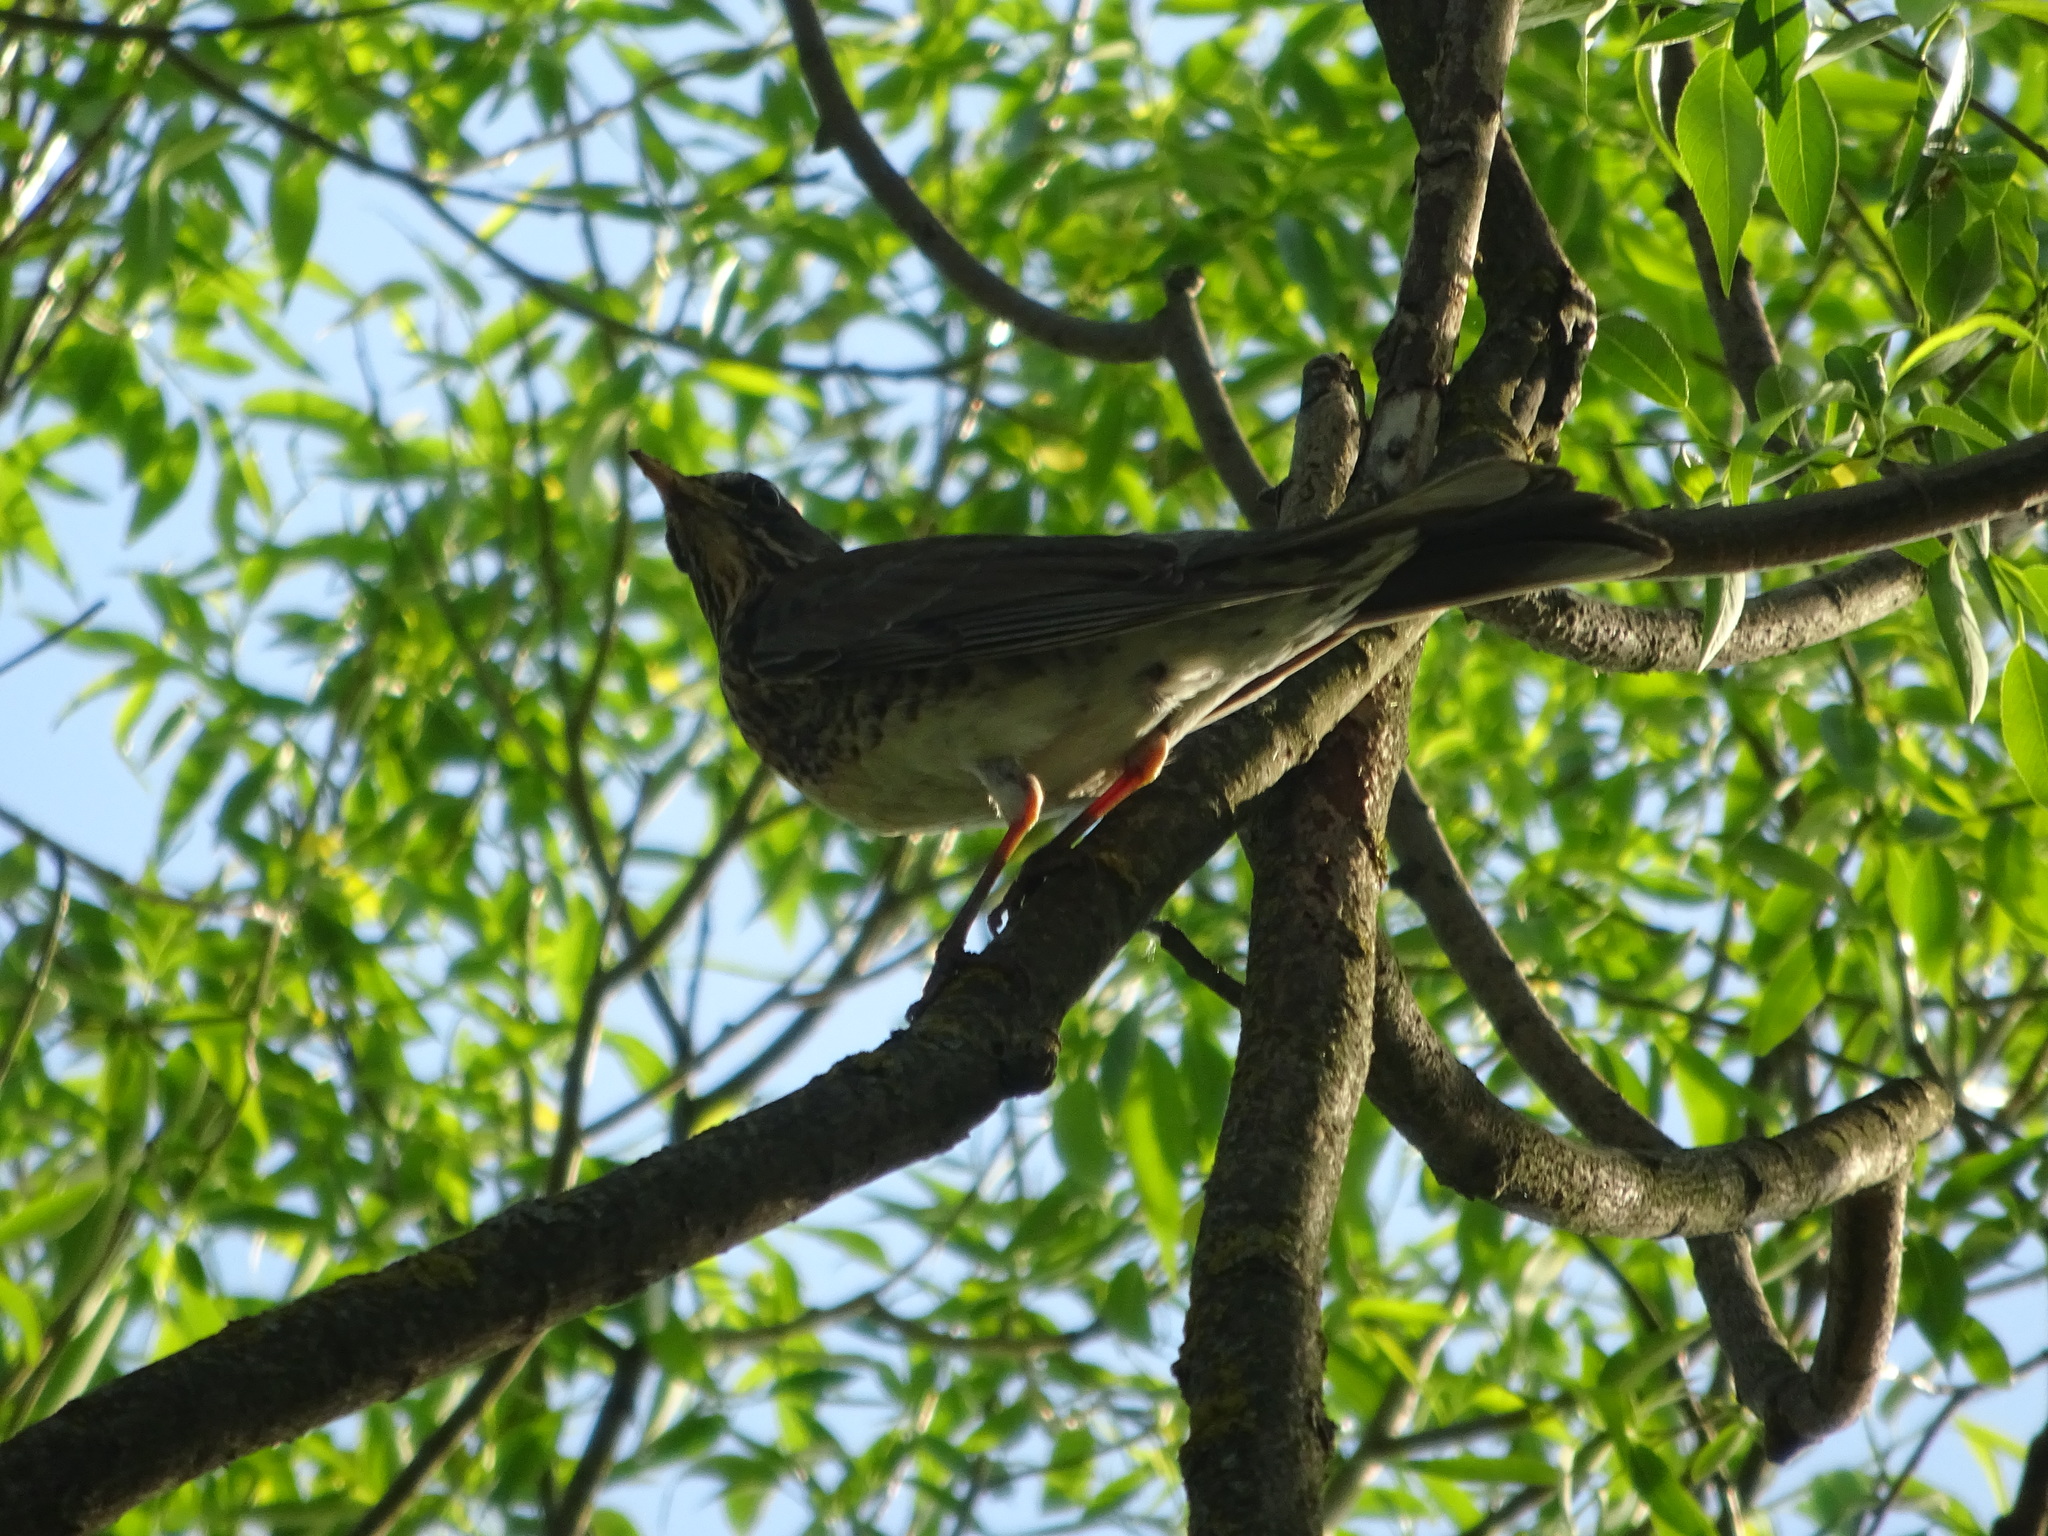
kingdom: Animalia
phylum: Chordata
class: Aves
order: Passeriformes
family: Turdidae
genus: Turdus
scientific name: Turdus pilaris
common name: Fieldfare
